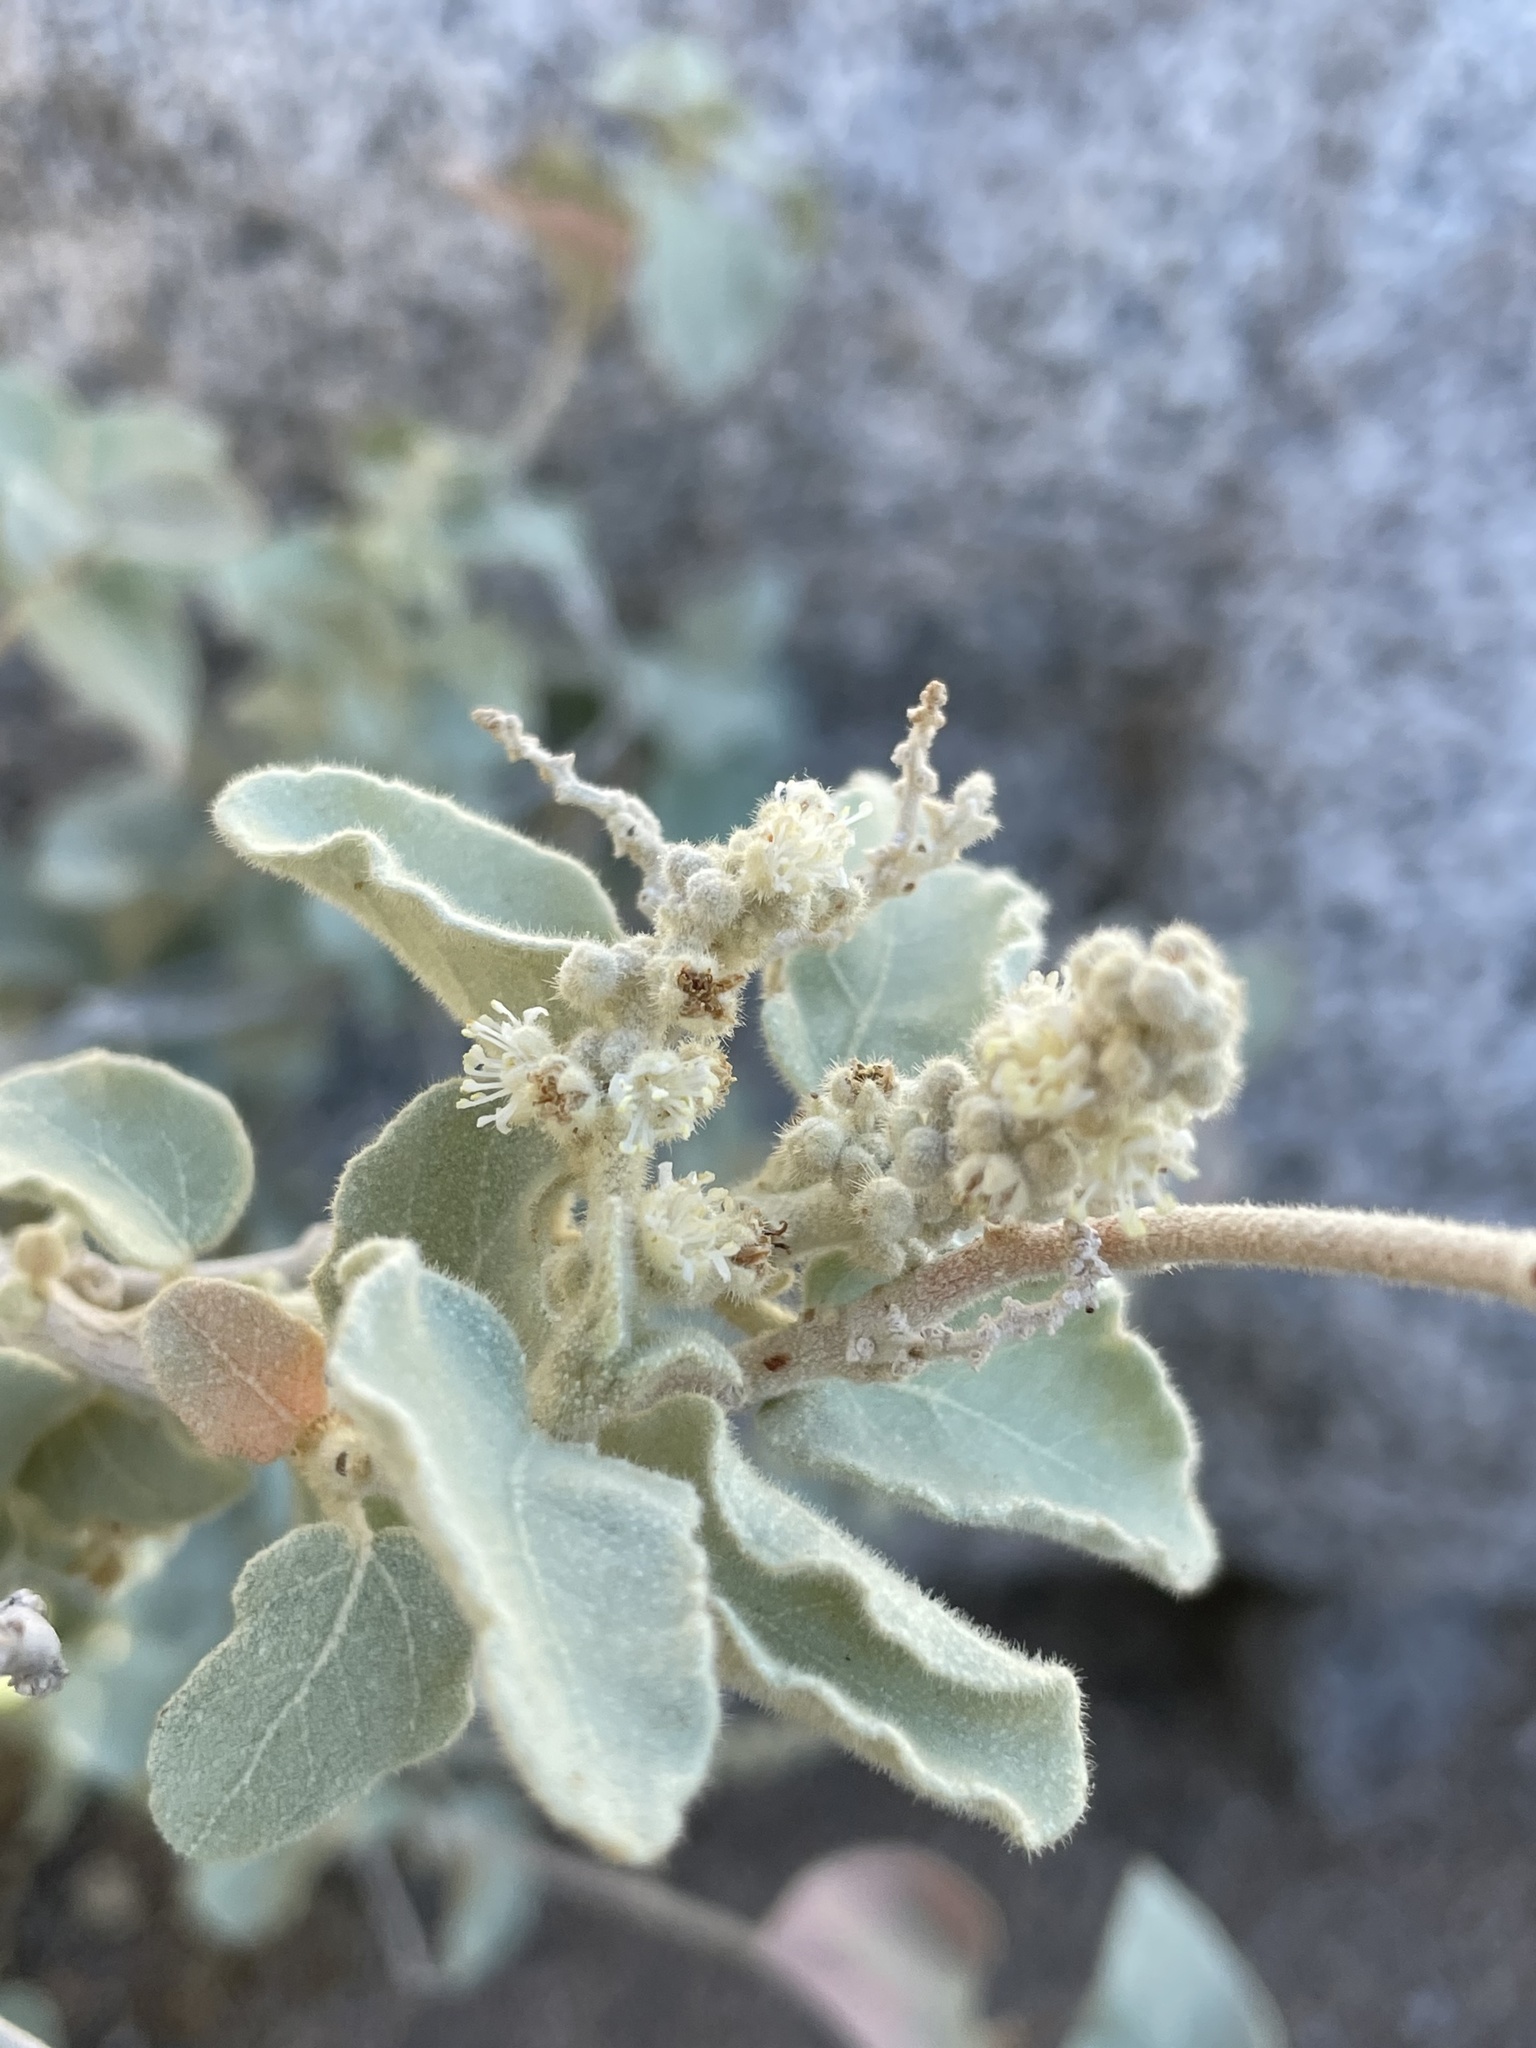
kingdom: Plantae
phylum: Tracheophyta
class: Magnoliopsida
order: Malpighiales
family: Euphorbiaceae
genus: Croton
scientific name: Croton magdalenae
